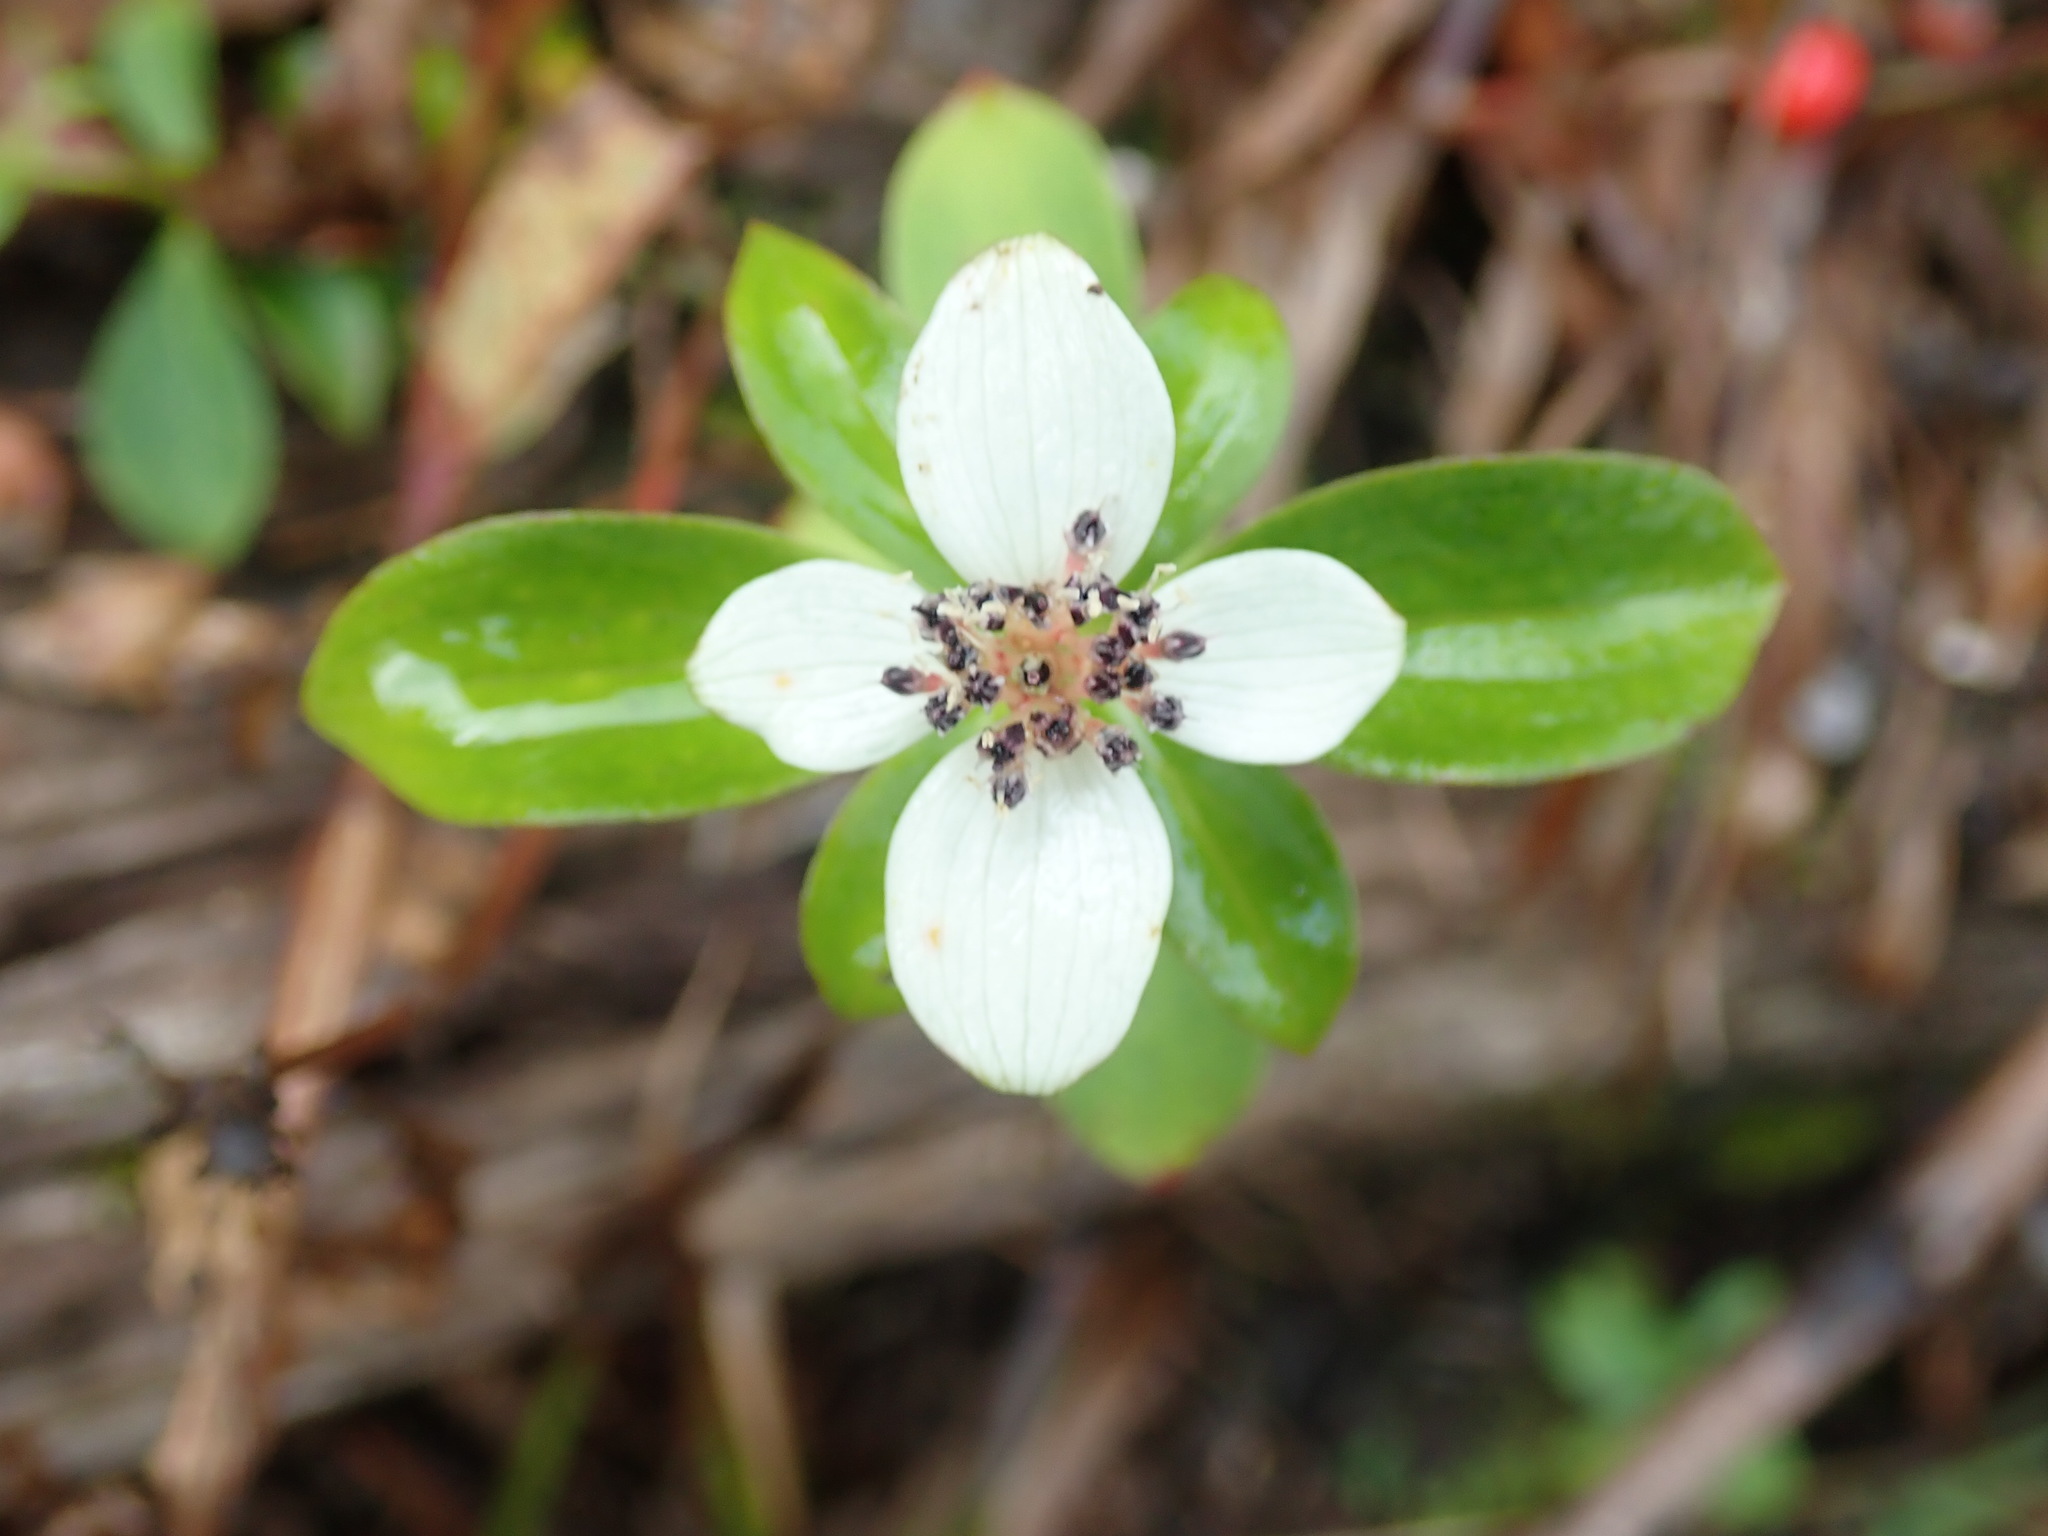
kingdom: Plantae
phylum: Tracheophyta
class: Magnoliopsida
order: Cornales
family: Cornaceae
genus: Cornus
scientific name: Cornus unalaschkensis
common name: Alaska bunchberry
